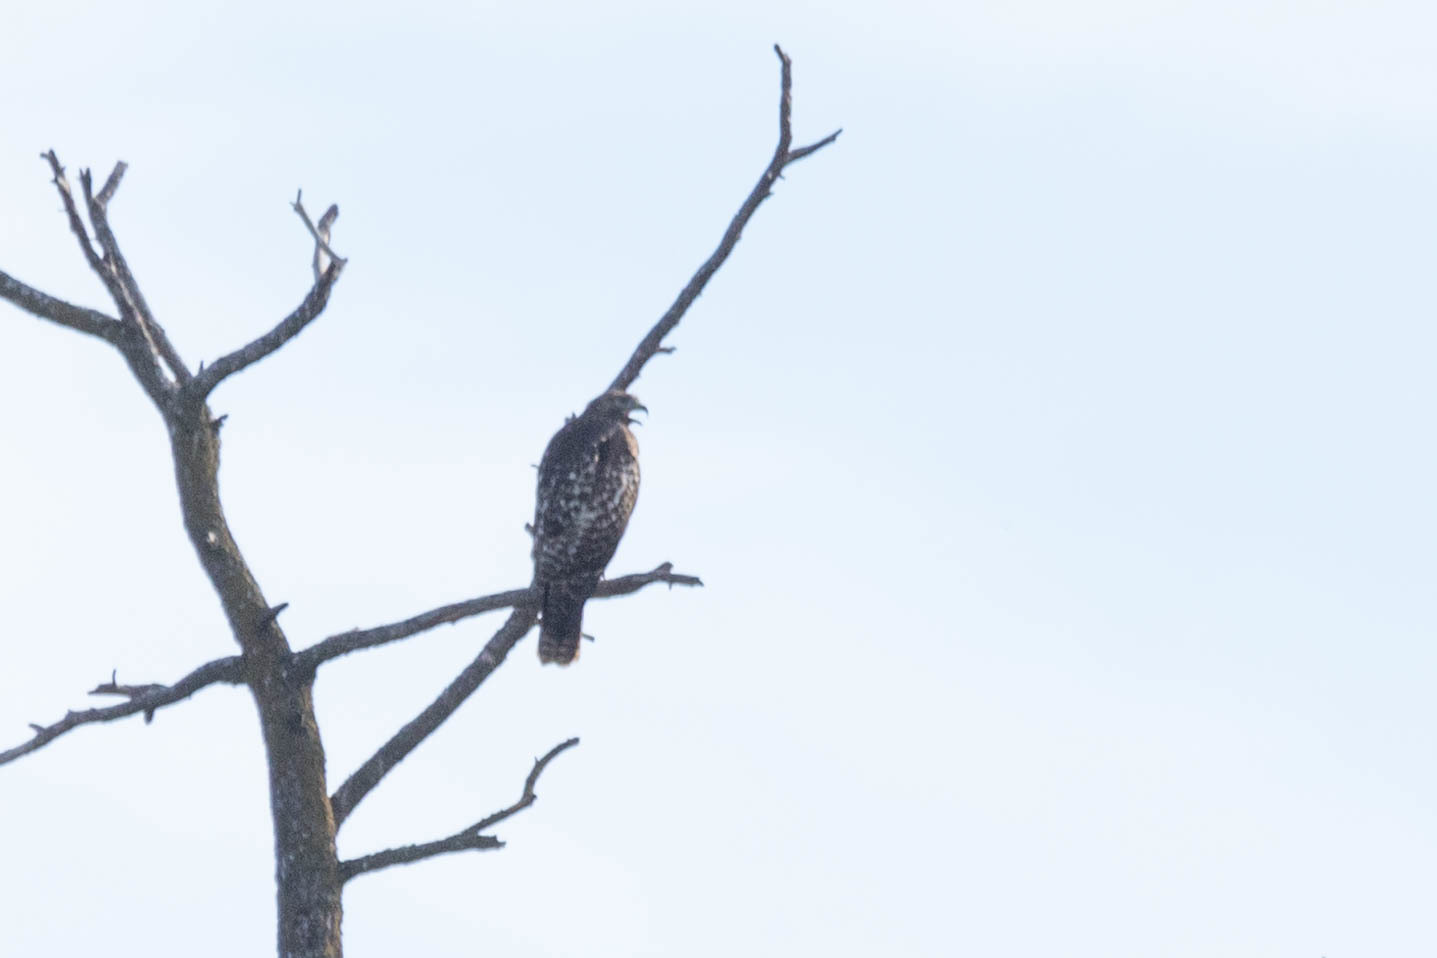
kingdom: Animalia
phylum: Chordata
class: Aves
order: Accipitriformes
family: Accipitridae
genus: Buteo
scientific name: Buteo jamaicensis
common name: Red-tailed hawk
